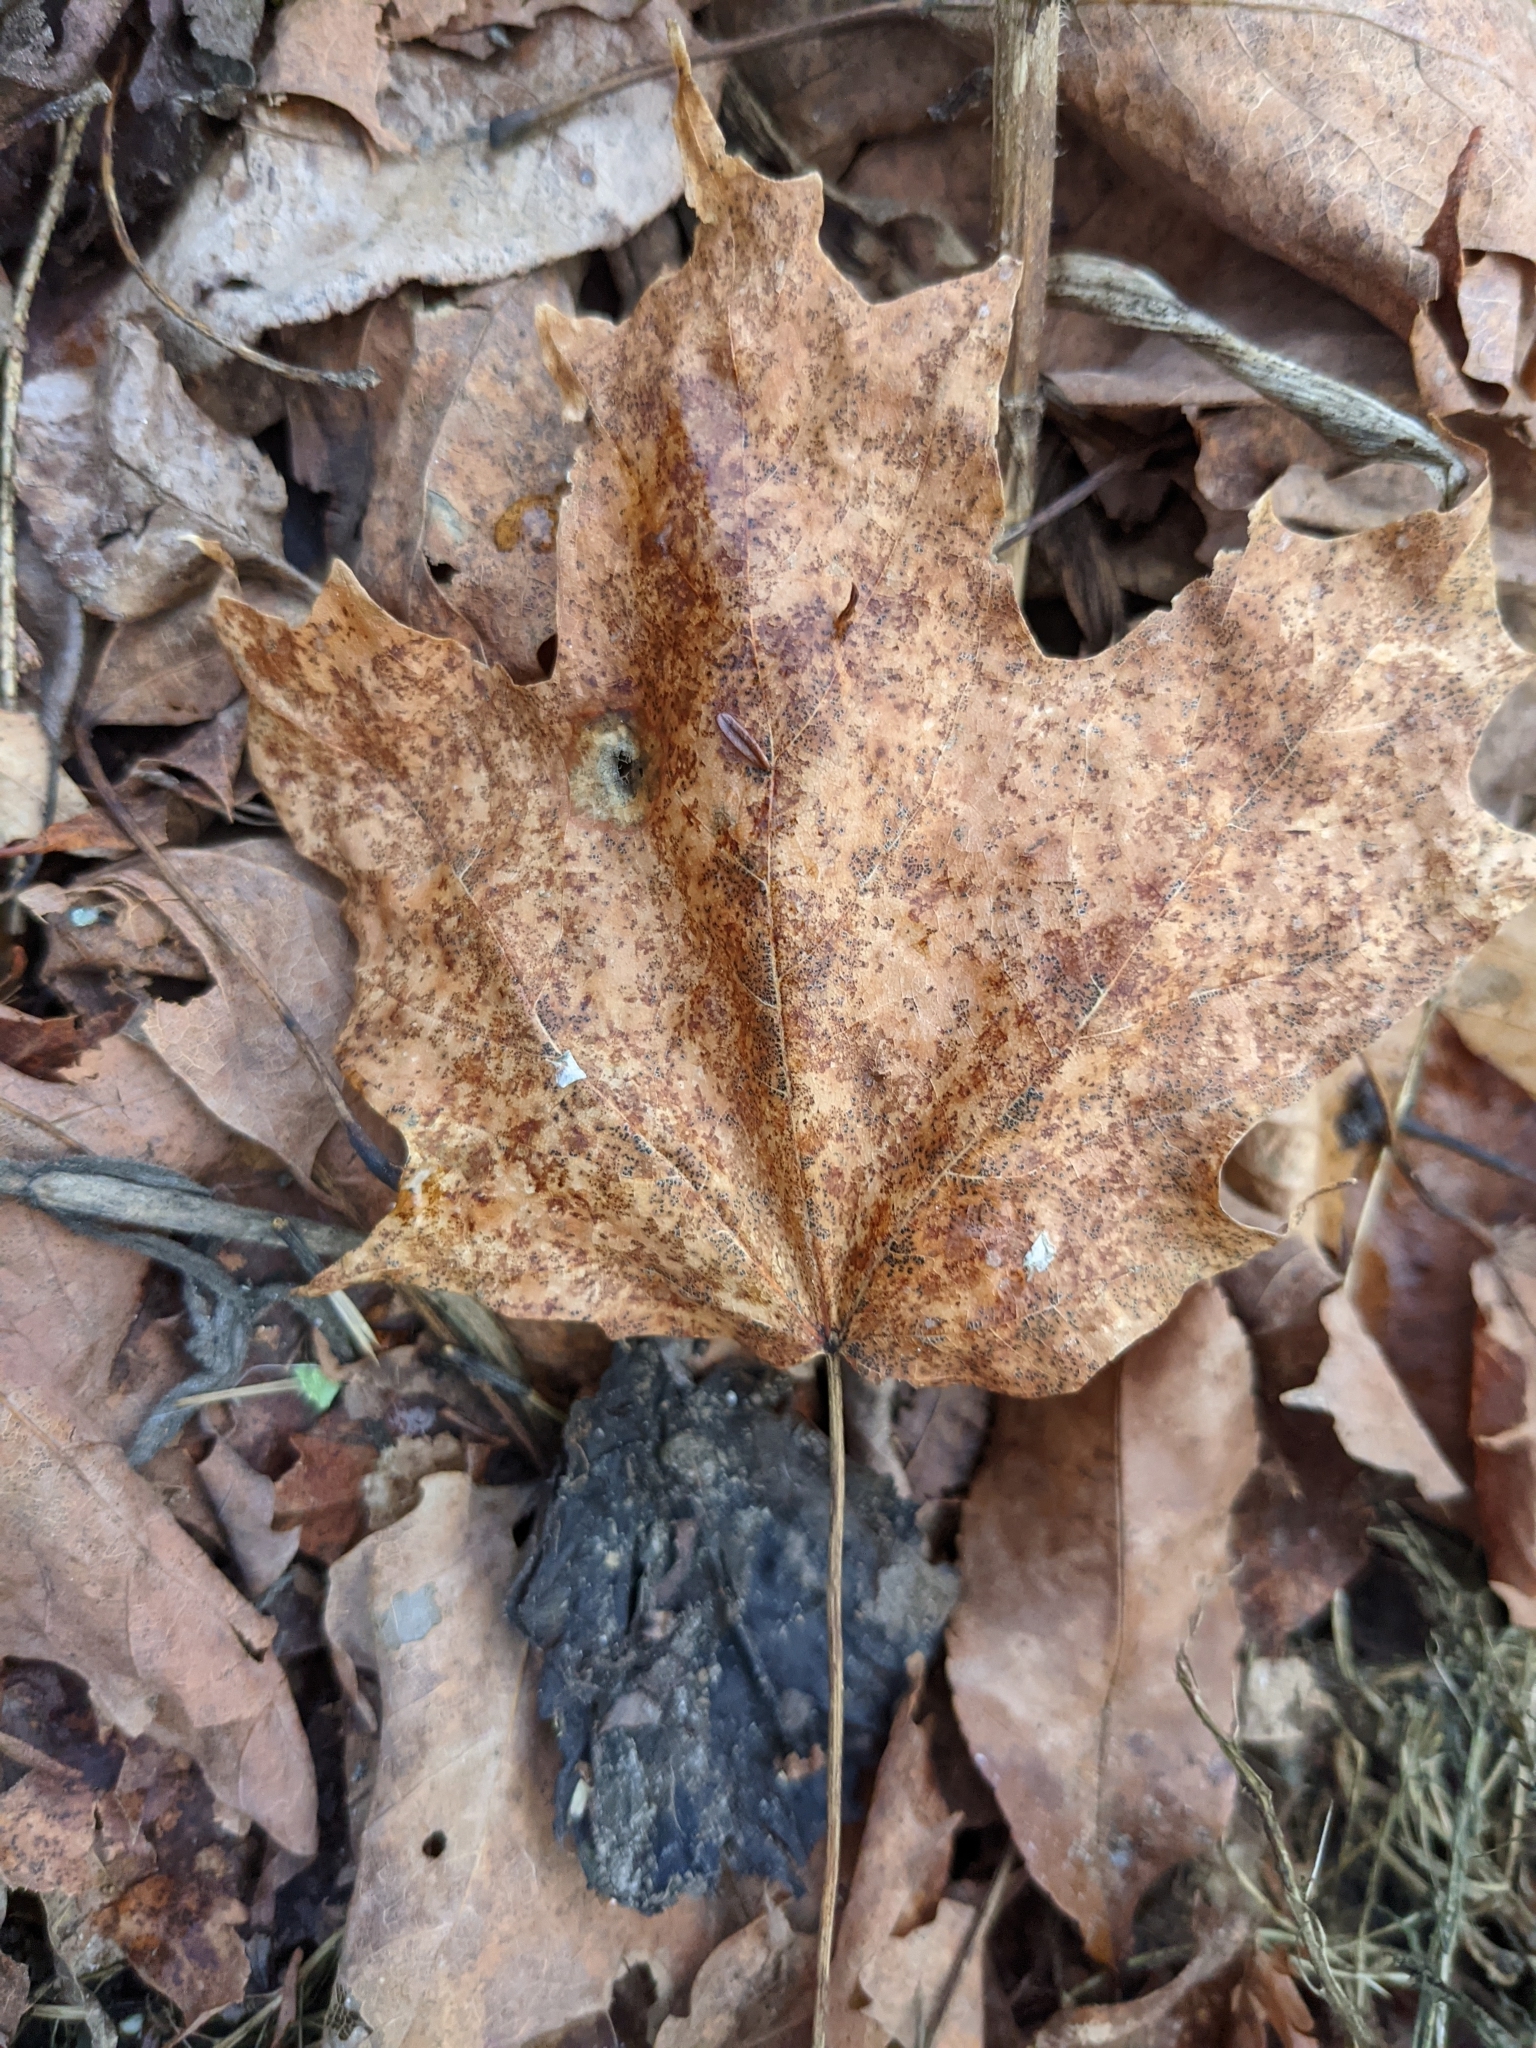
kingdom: Plantae
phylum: Tracheophyta
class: Magnoliopsida
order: Sapindales
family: Sapindaceae
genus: Acer
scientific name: Acer saccharum
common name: Sugar maple
